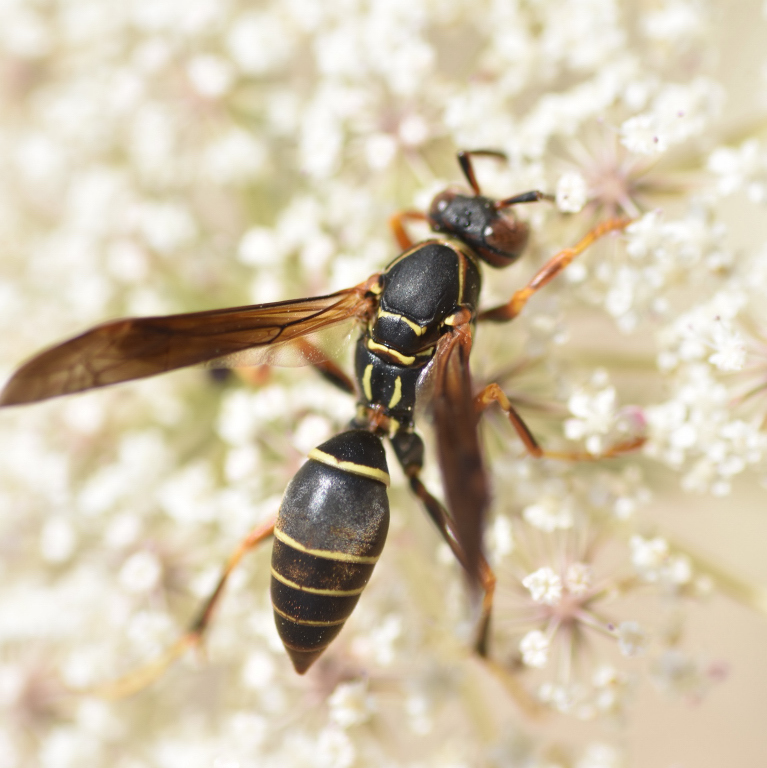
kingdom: Animalia
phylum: Arthropoda
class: Insecta
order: Hymenoptera
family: Eumenidae
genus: Polistes
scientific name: Polistes fuscatus
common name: Dark paper wasp
